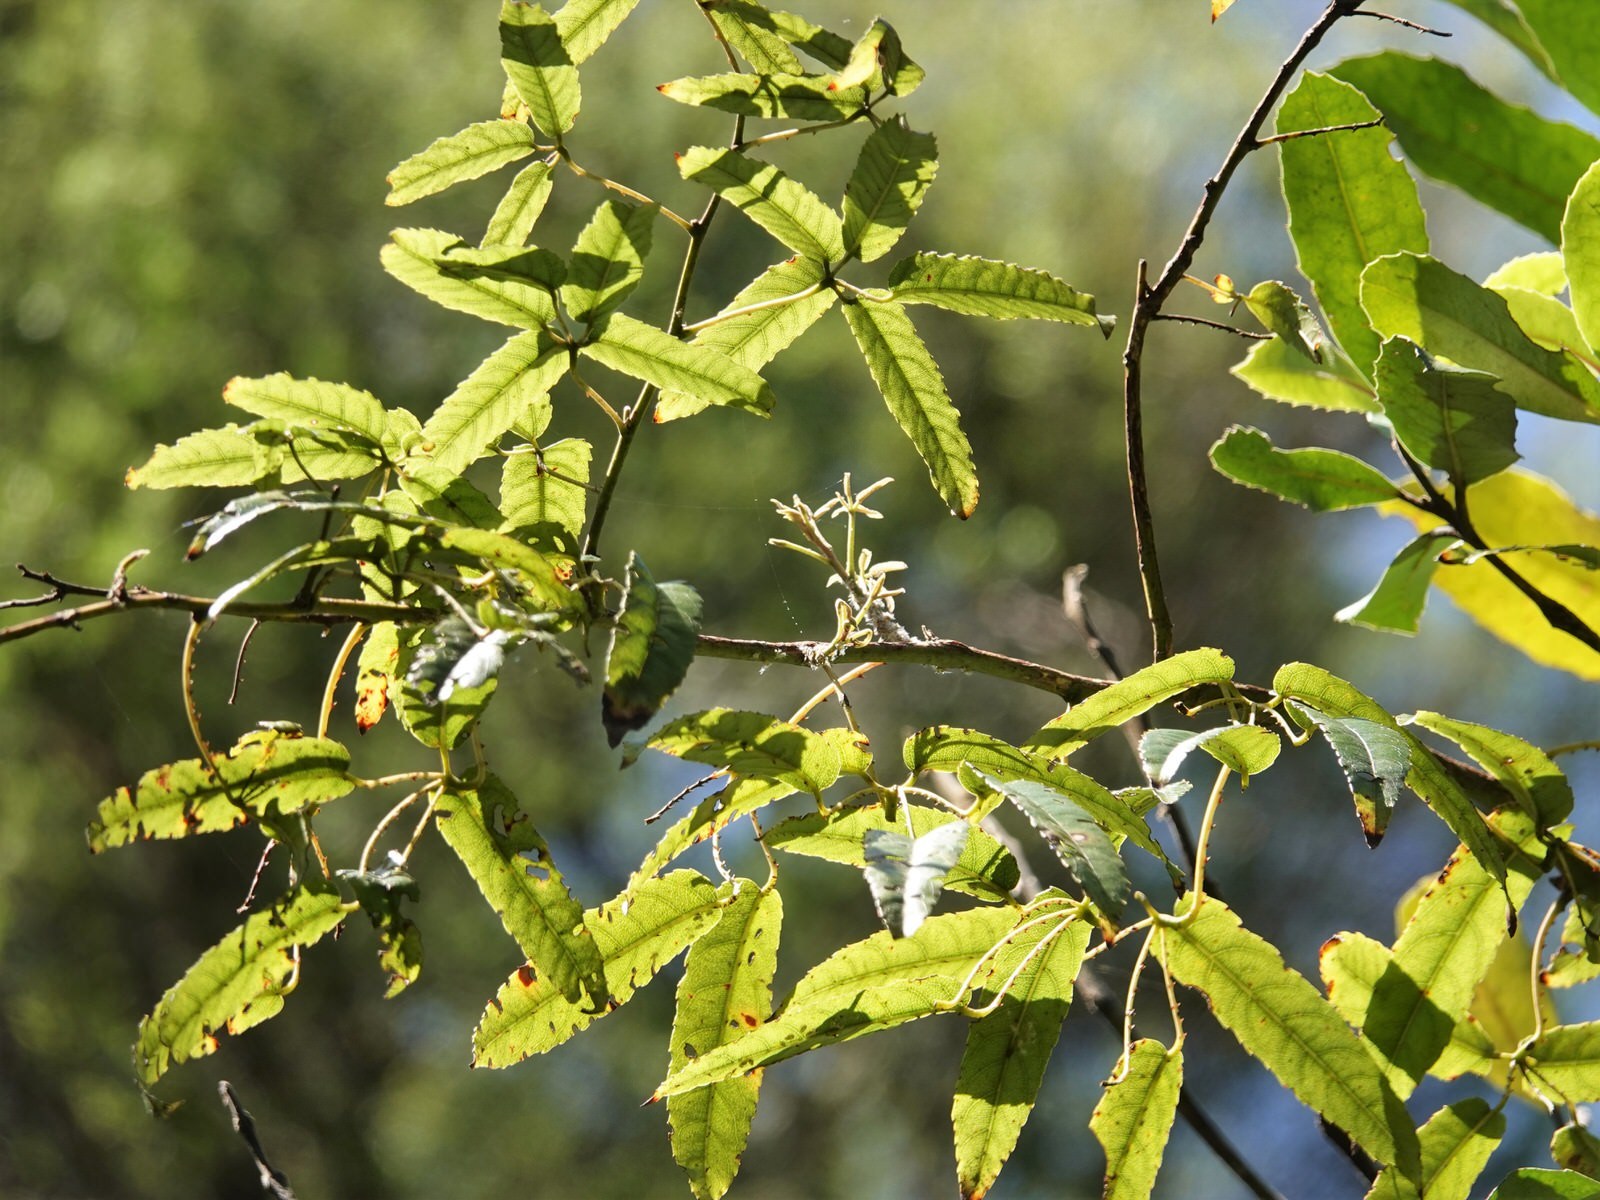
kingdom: Plantae
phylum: Tracheophyta
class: Magnoliopsida
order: Rosales
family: Rosaceae
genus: Rubus
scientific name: Rubus cissoides
